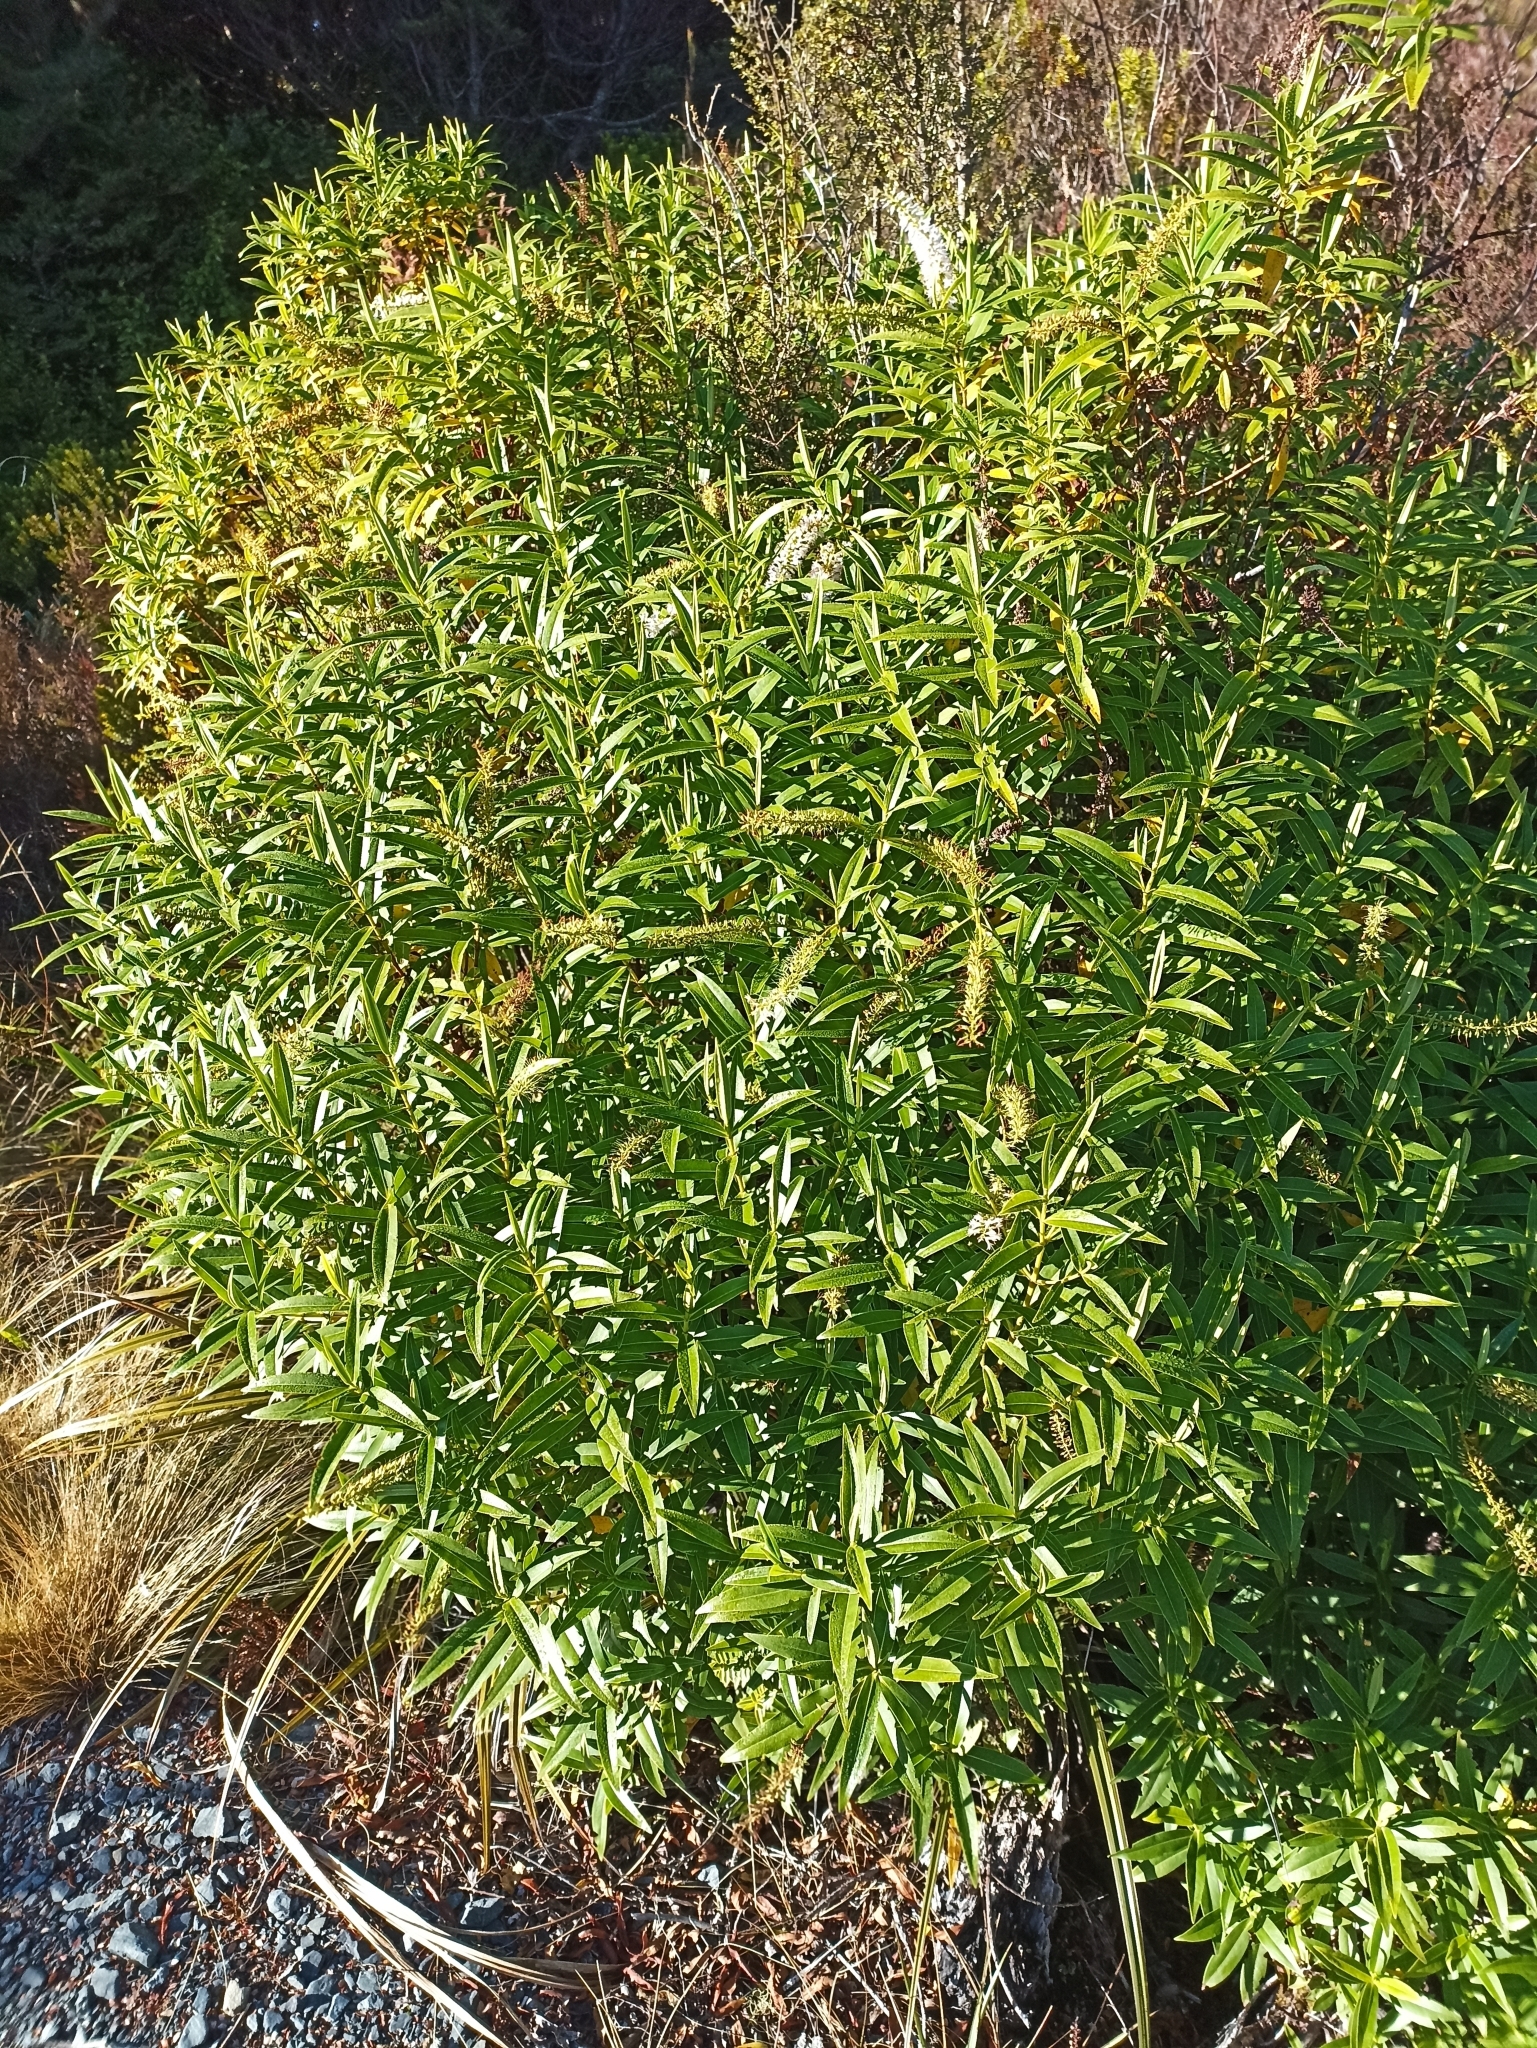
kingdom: Plantae
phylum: Tracheophyta
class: Magnoliopsida
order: Lamiales
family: Plantaginaceae
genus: Veronica
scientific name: Veronica stricta
